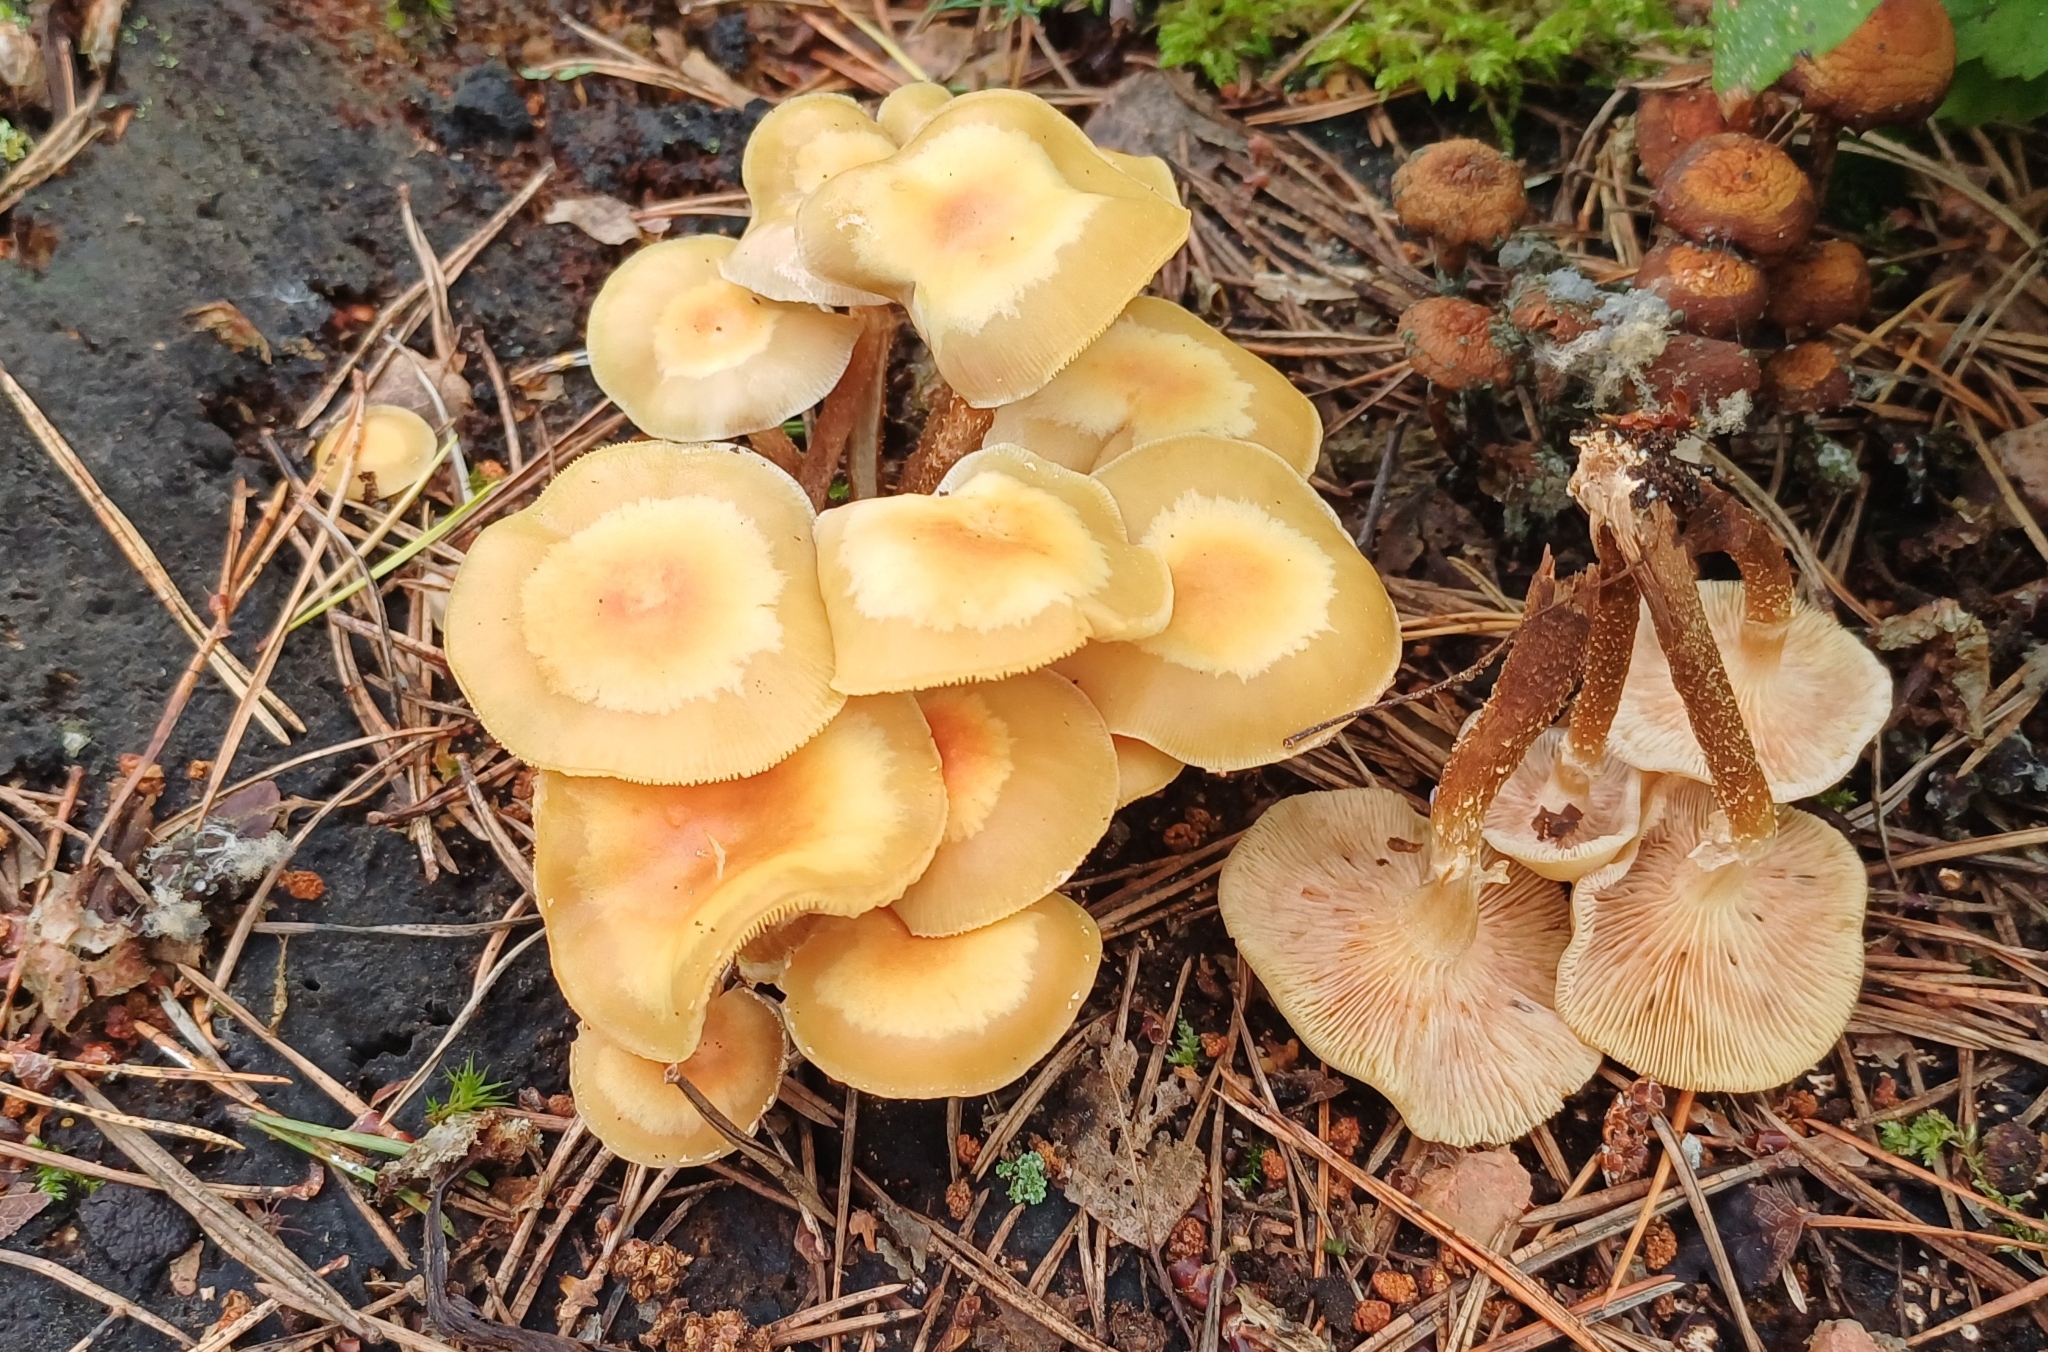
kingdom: Fungi
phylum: Basidiomycota
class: Agaricomycetes
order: Agaricales
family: Strophariaceae
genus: Kuehneromyces
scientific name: Kuehneromyces mutabilis
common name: Sheathed woodtuft
